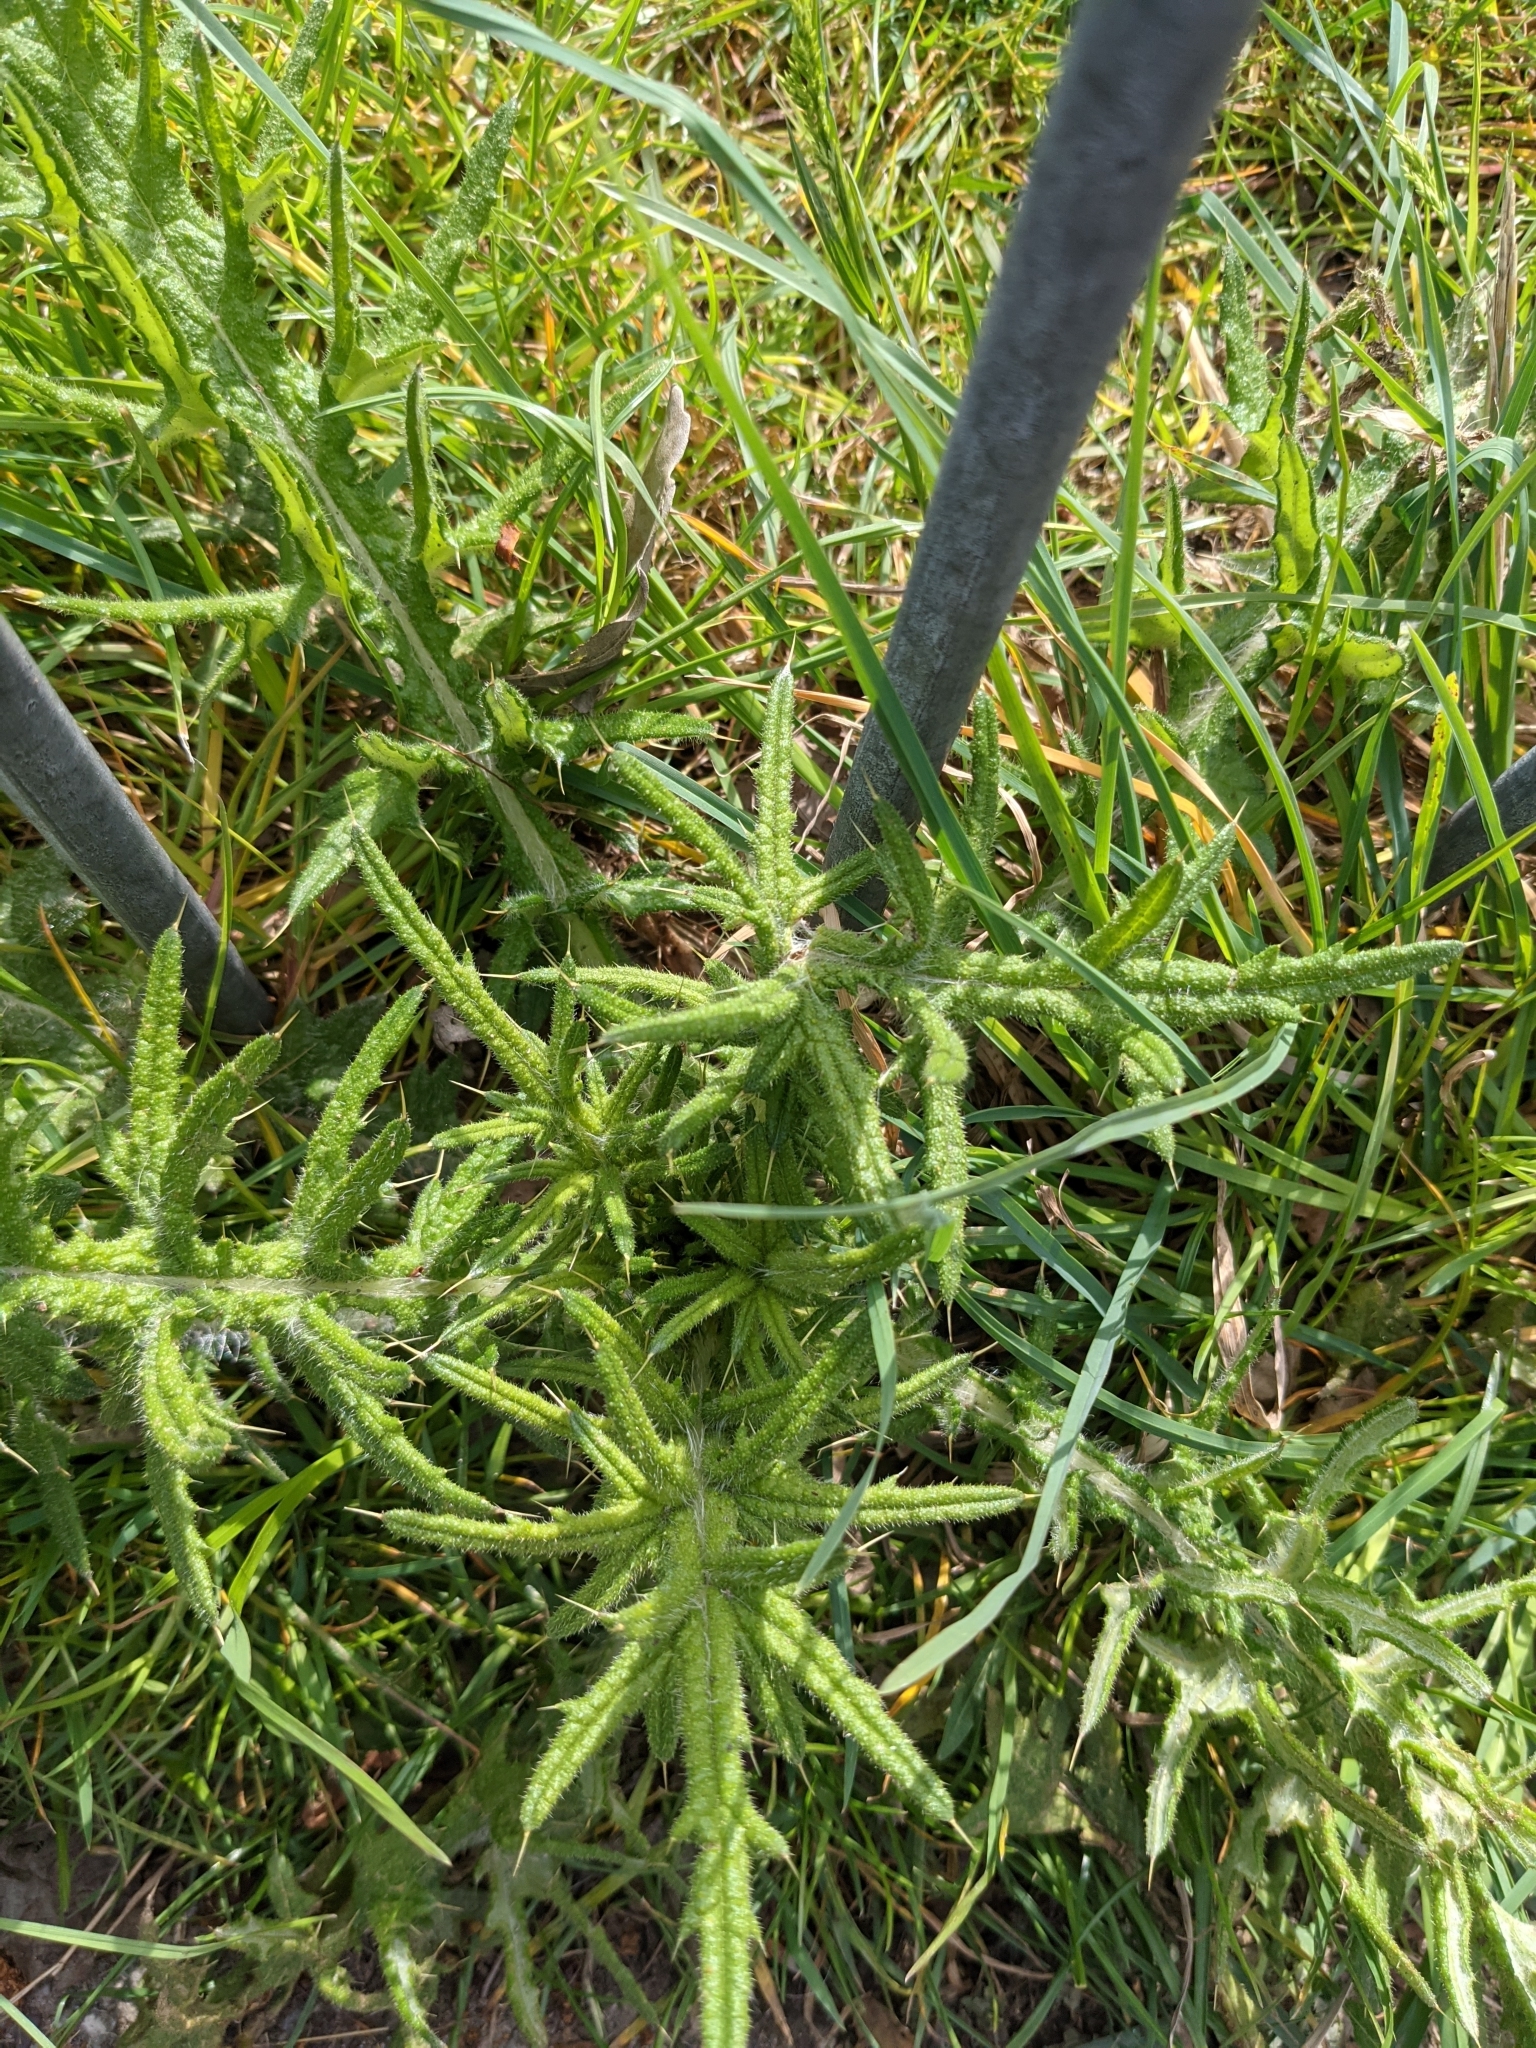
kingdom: Plantae
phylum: Tracheophyta
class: Magnoliopsida
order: Asterales
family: Asteraceae
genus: Cirsium
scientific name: Cirsium vulgare
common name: Bull thistle
